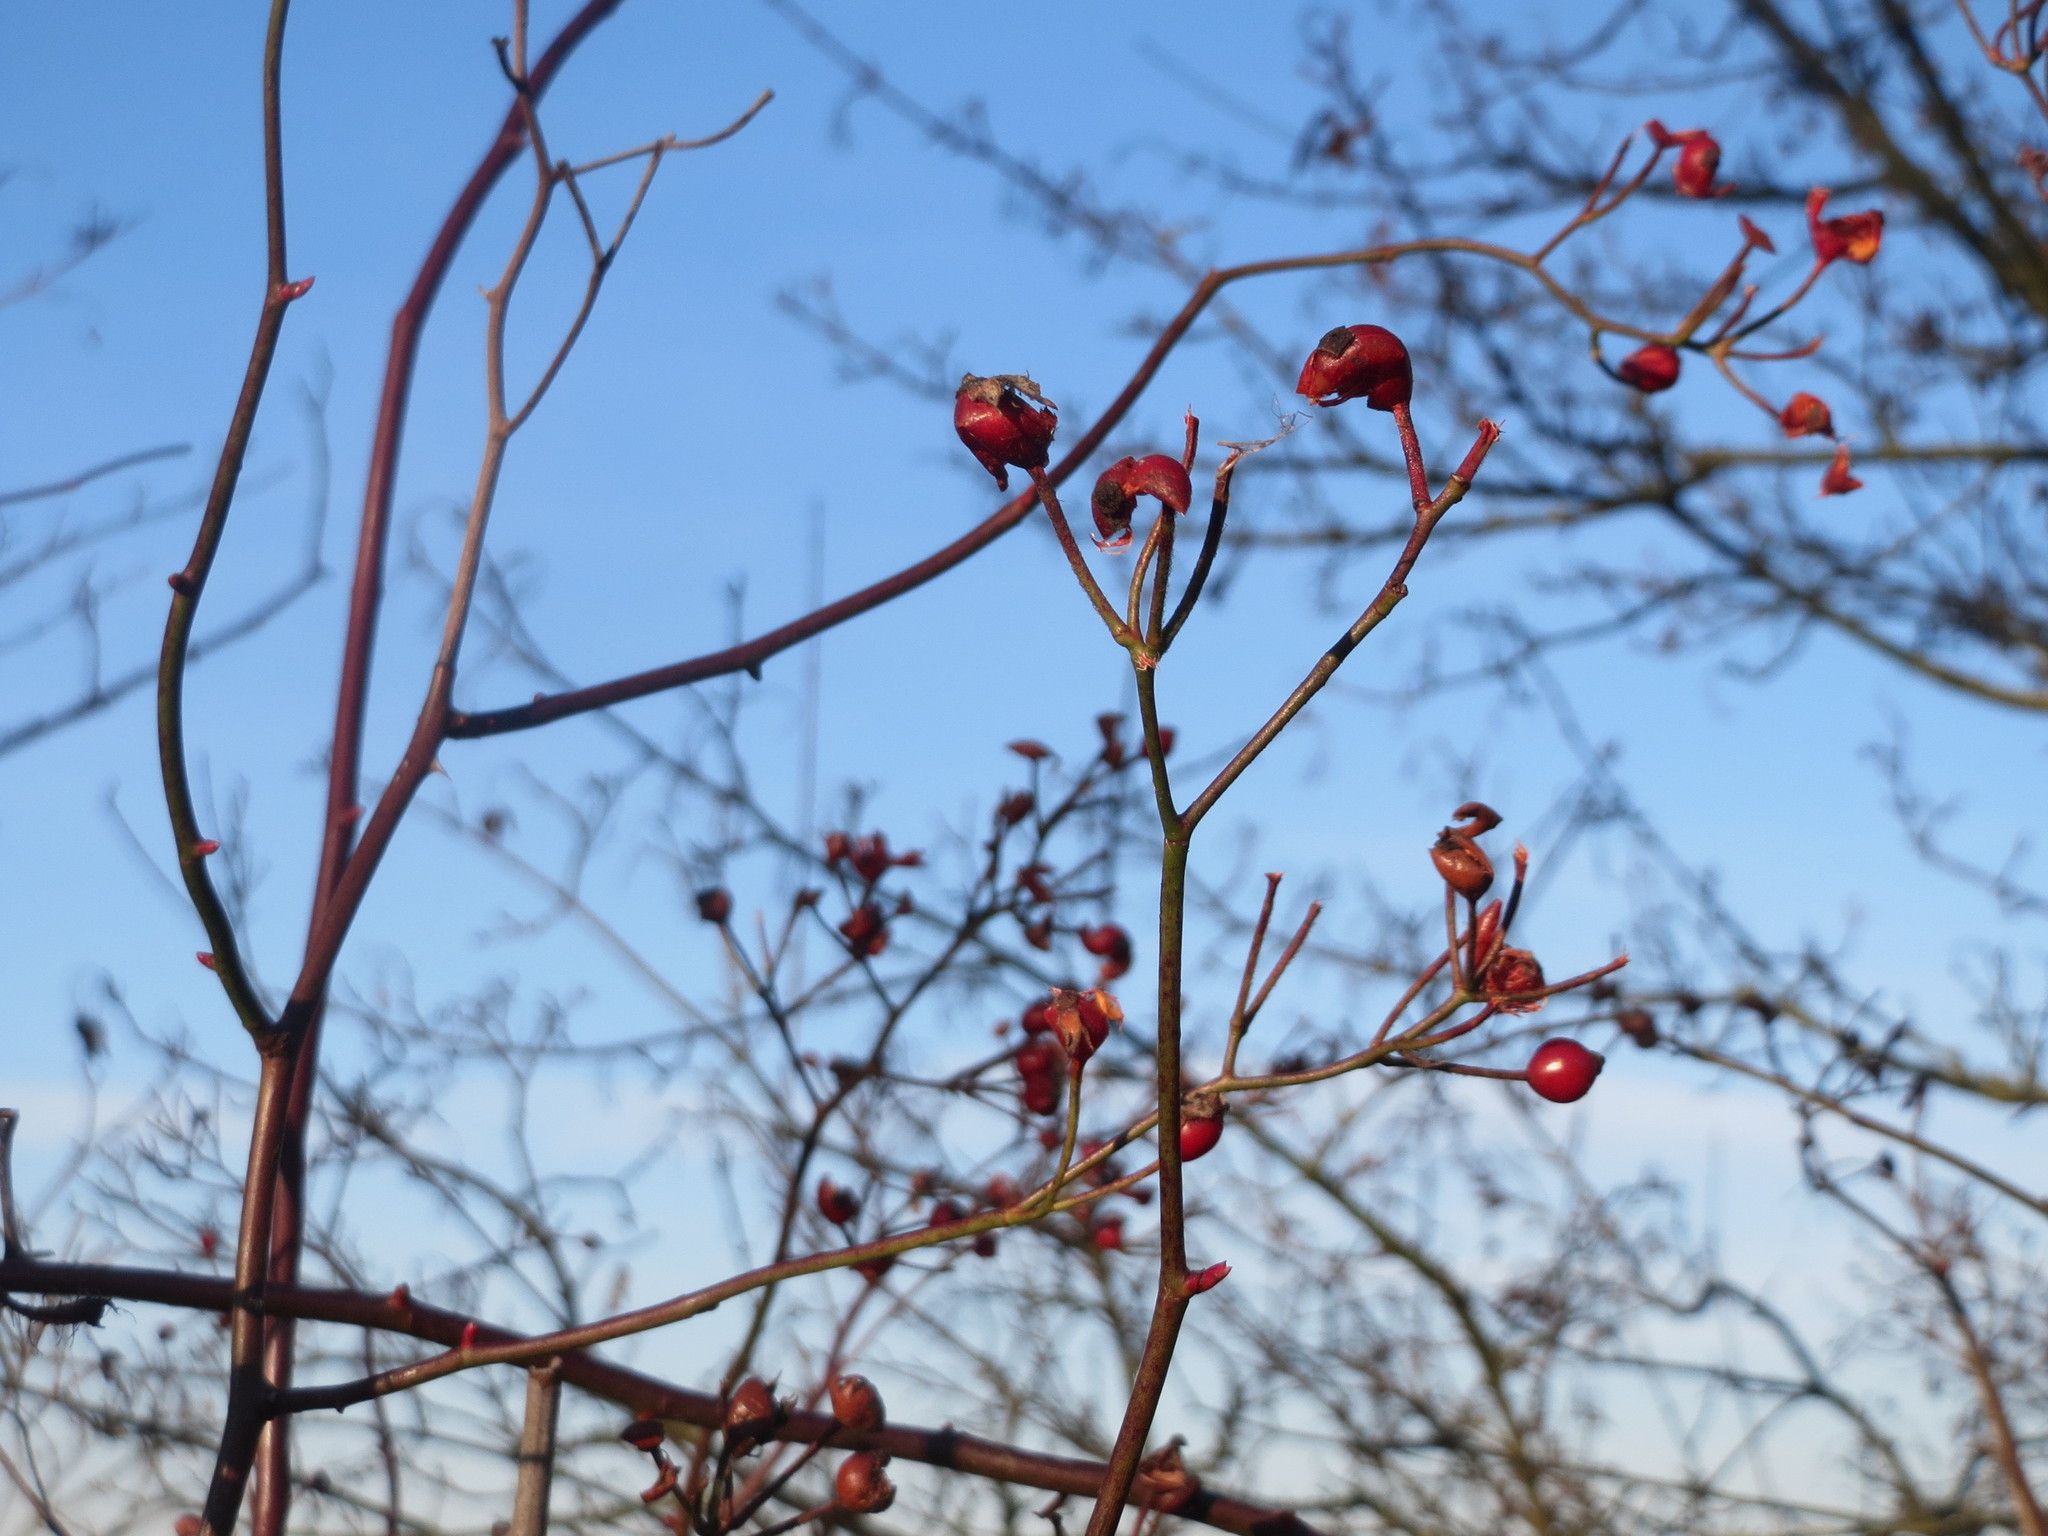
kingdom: Plantae
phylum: Tracheophyta
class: Magnoliopsida
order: Rosales
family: Rosaceae
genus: Rosa
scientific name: Rosa multiflora
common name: Multiflora rose
